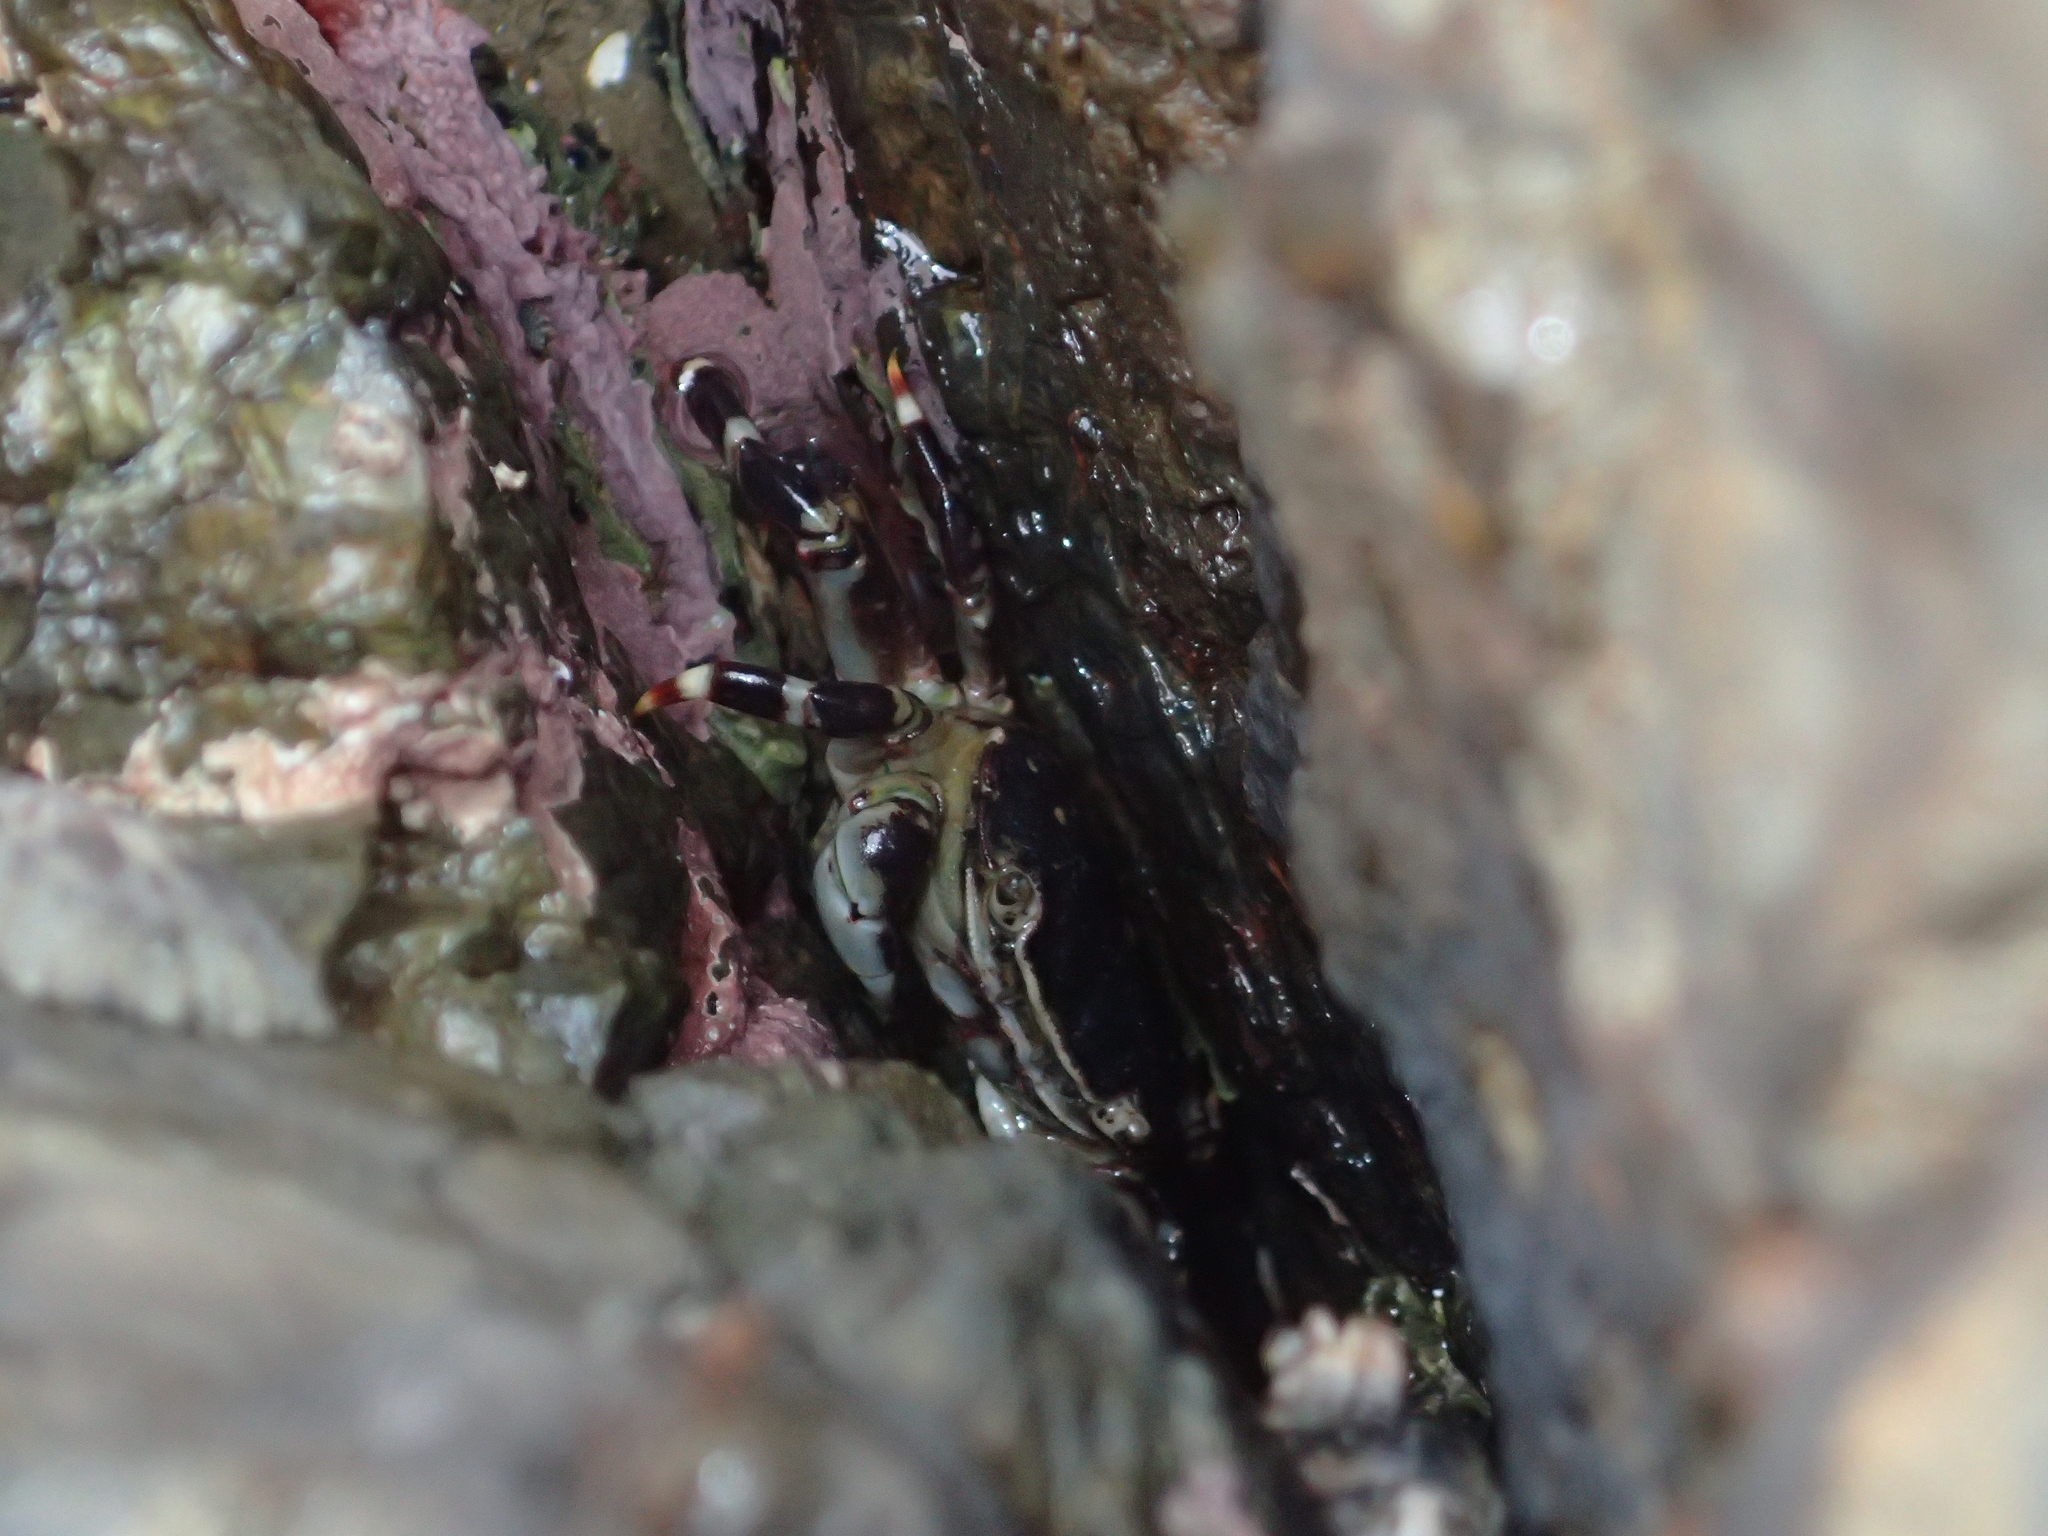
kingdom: Animalia
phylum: Arthropoda
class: Malacostraca
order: Decapoda
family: Varunidae
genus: Hemigrapsus
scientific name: Hemigrapsus sexdentatus
